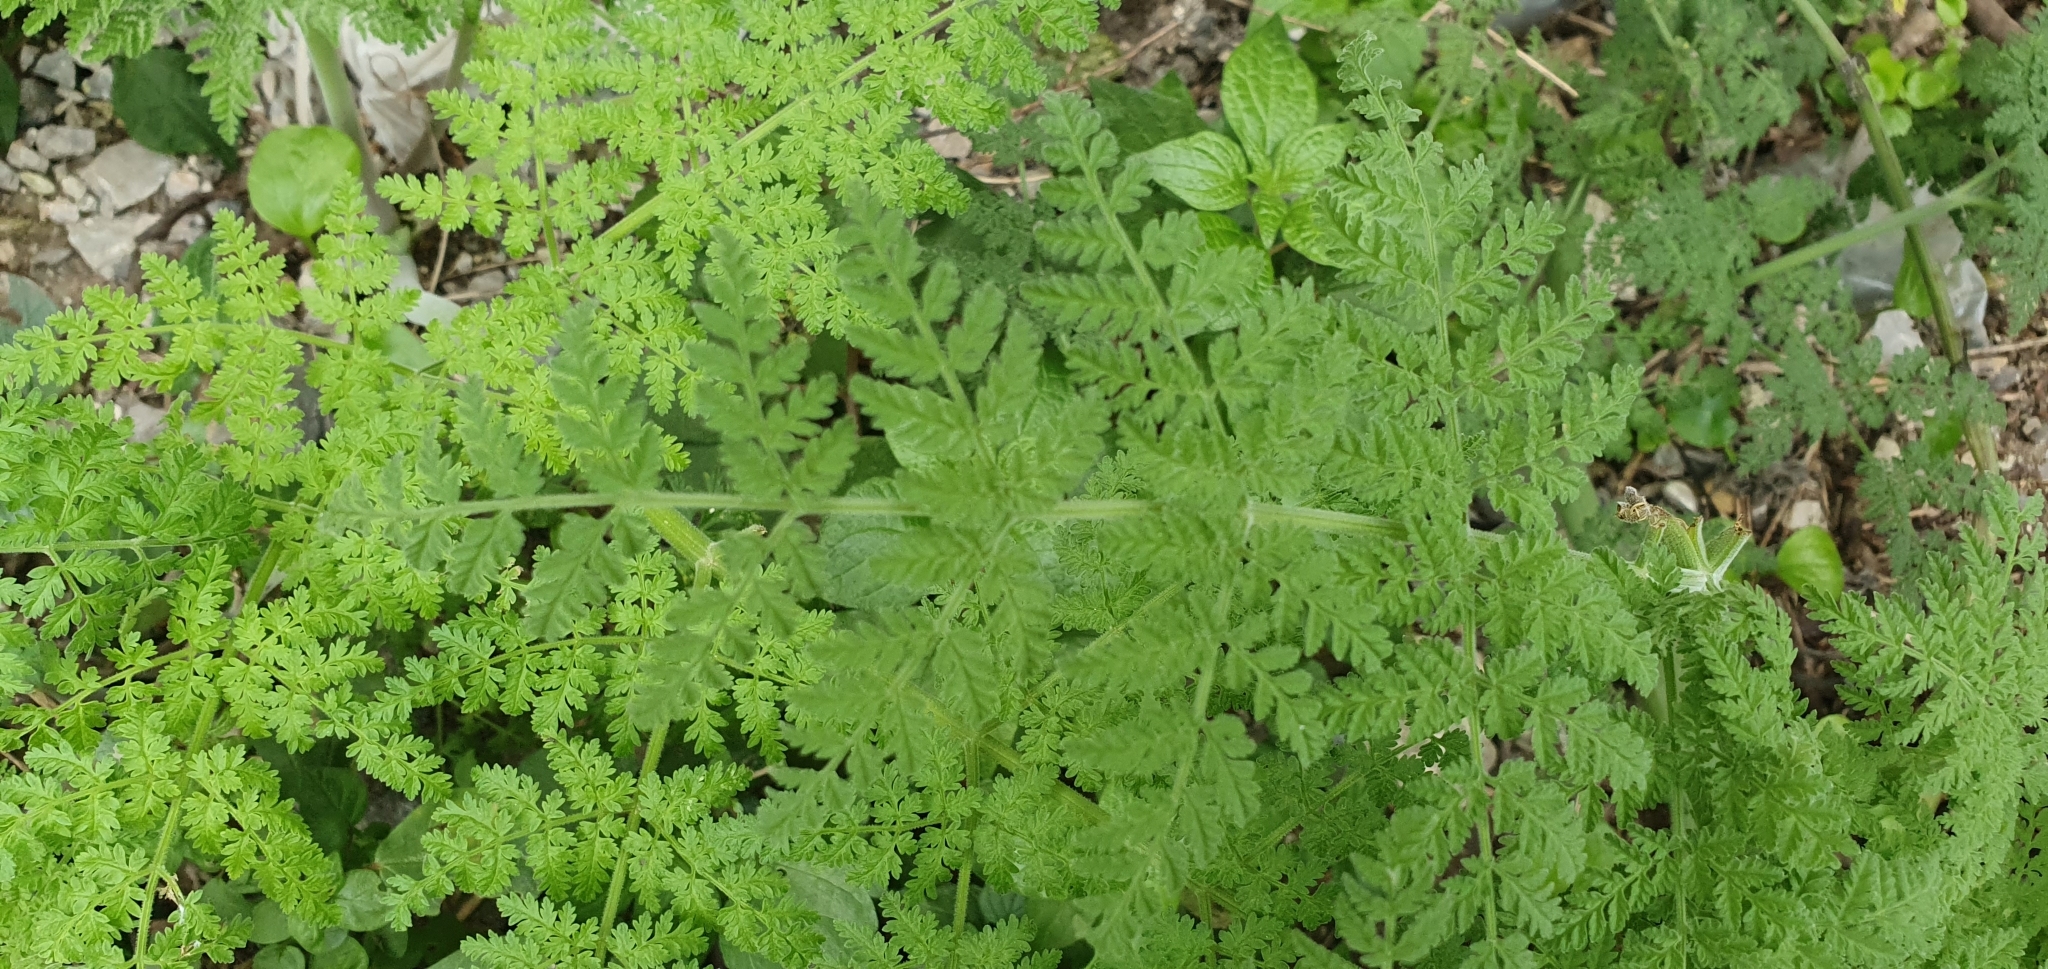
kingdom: Plantae
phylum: Tracheophyta
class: Magnoliopsida
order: Apiales
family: Apiaceae
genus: Athamanta
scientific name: Athamanta sicula
